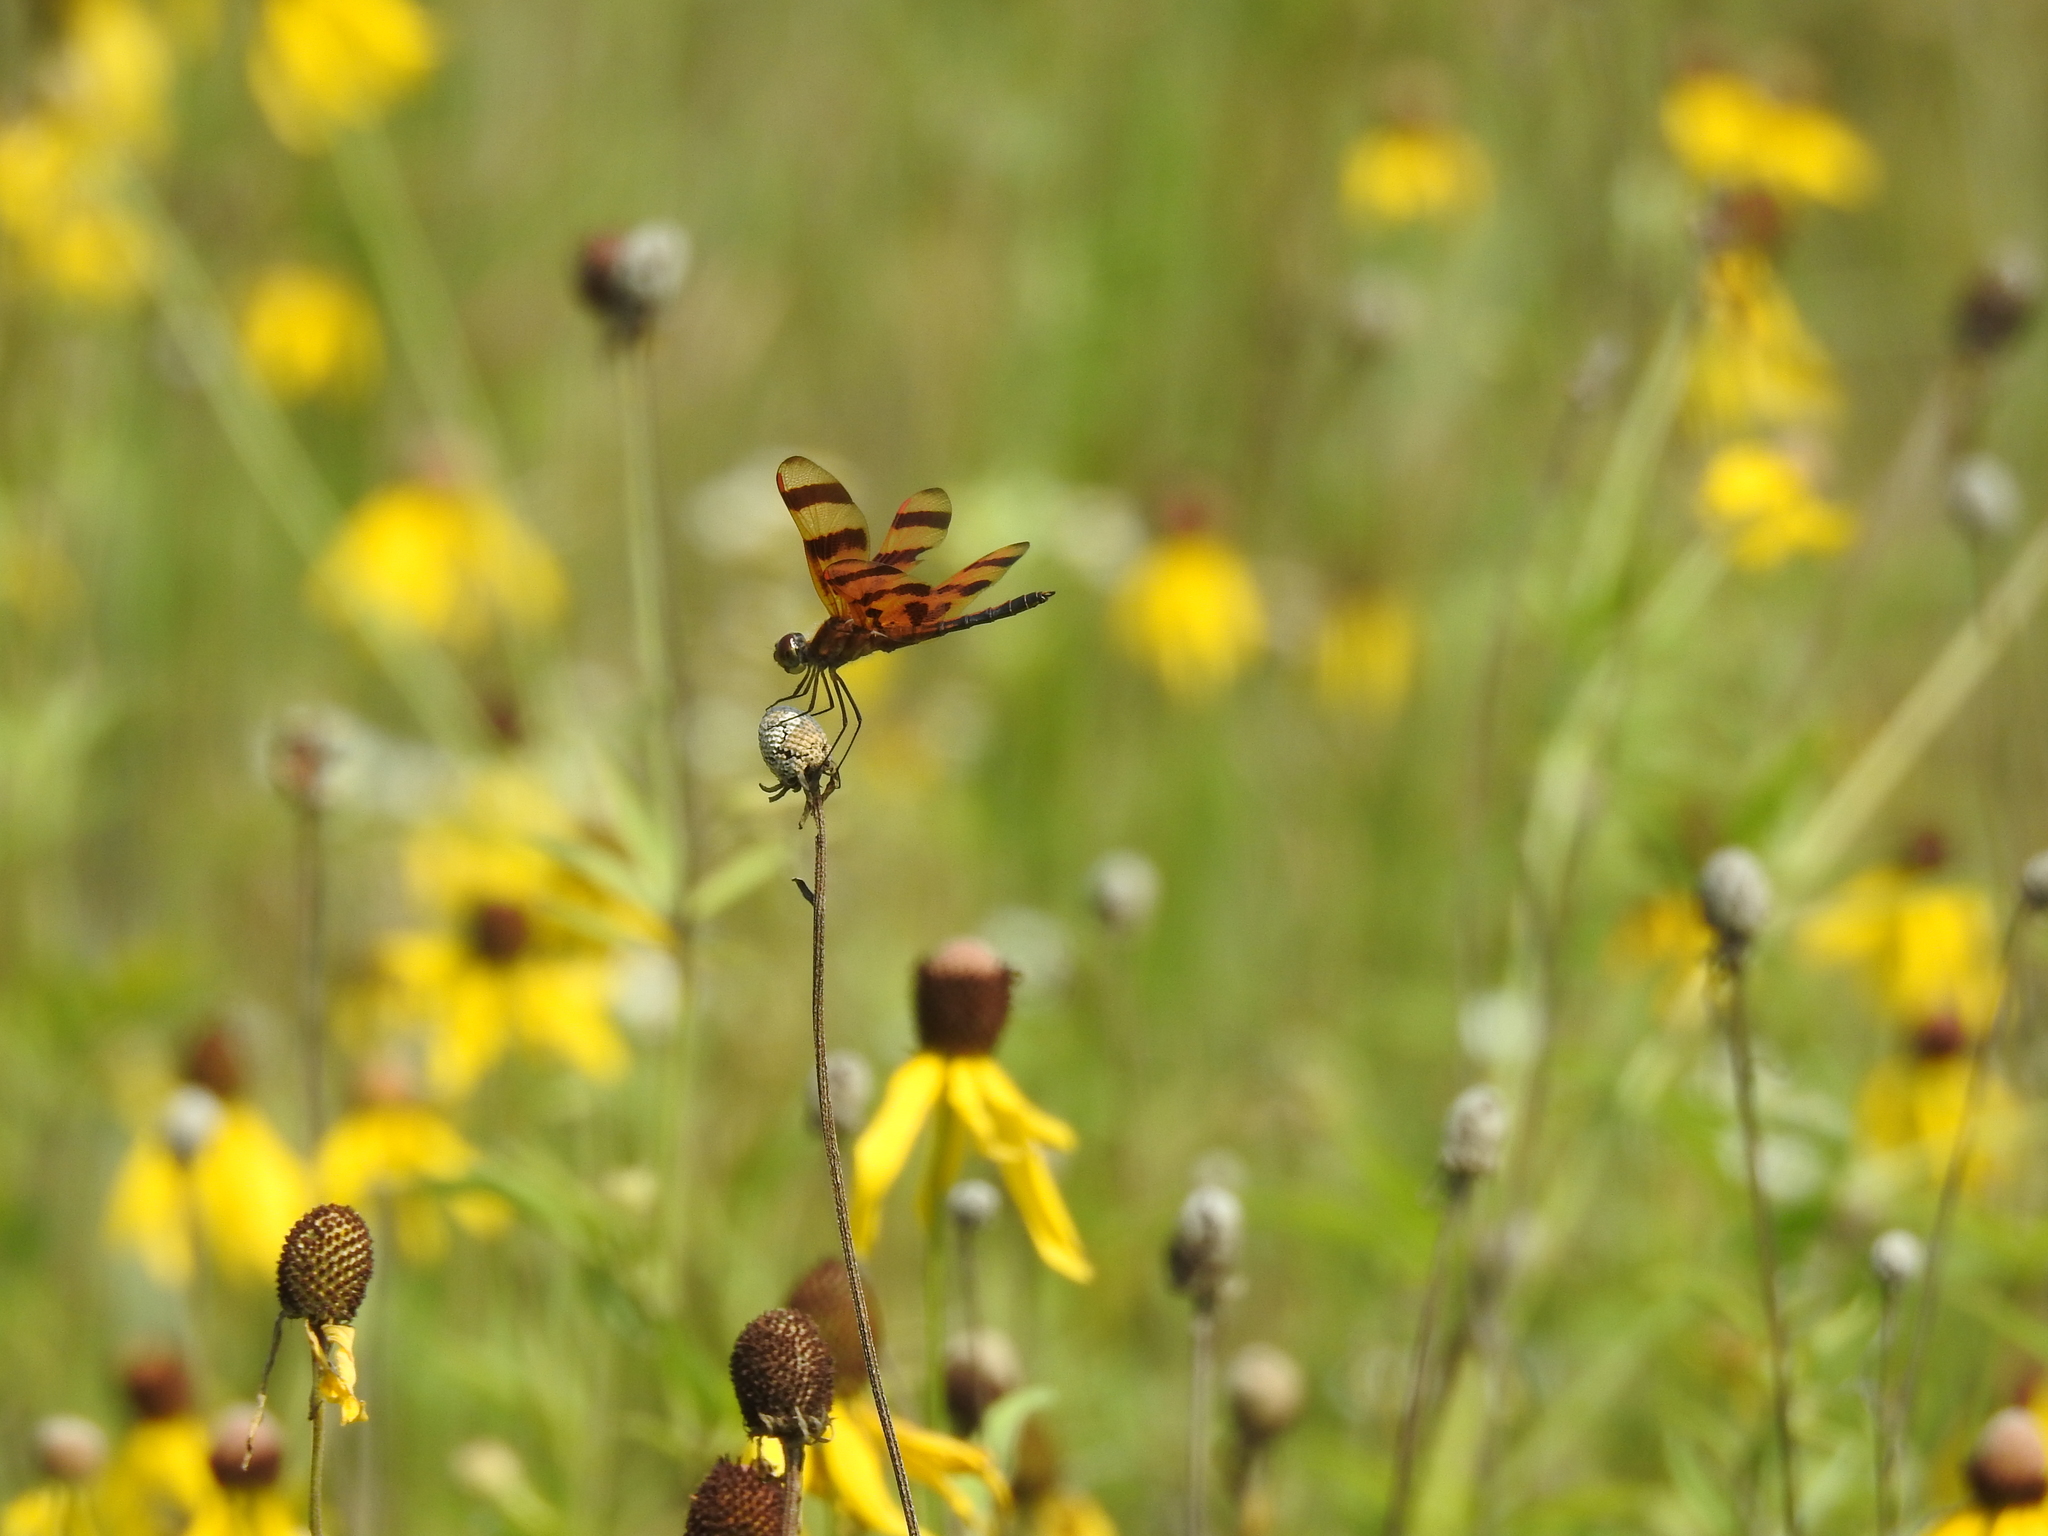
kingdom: Animalia
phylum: Arthropoda
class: Insecta
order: Odonata
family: Libellulidae
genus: Celithemis
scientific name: Celithemis eponina
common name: Halloween pennant
